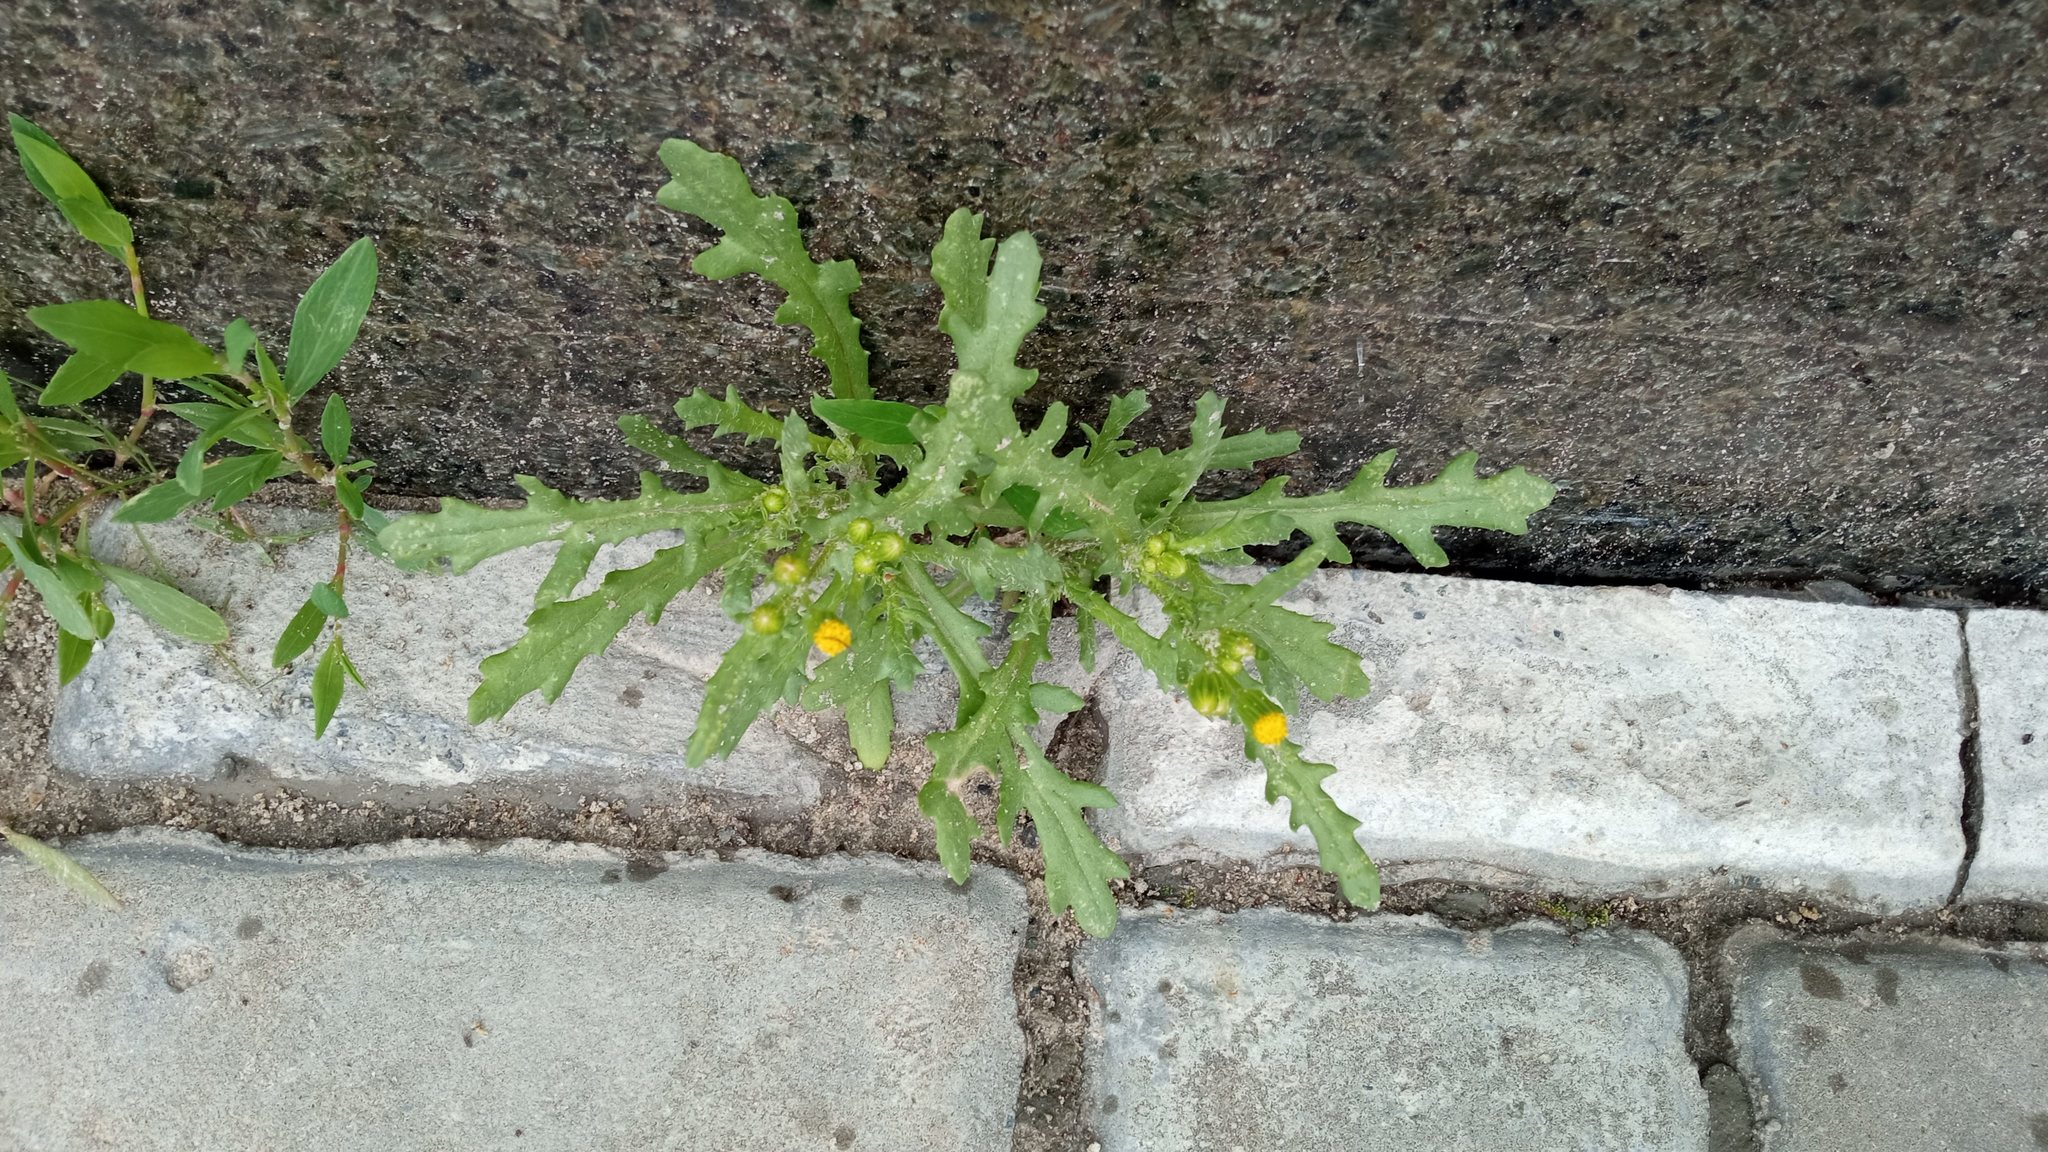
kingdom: Plantae
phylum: Tracheophyta
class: Magnoliopsida
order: Asterales
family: Asteraceae
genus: Senecio
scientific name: Senecio dubitabilis
